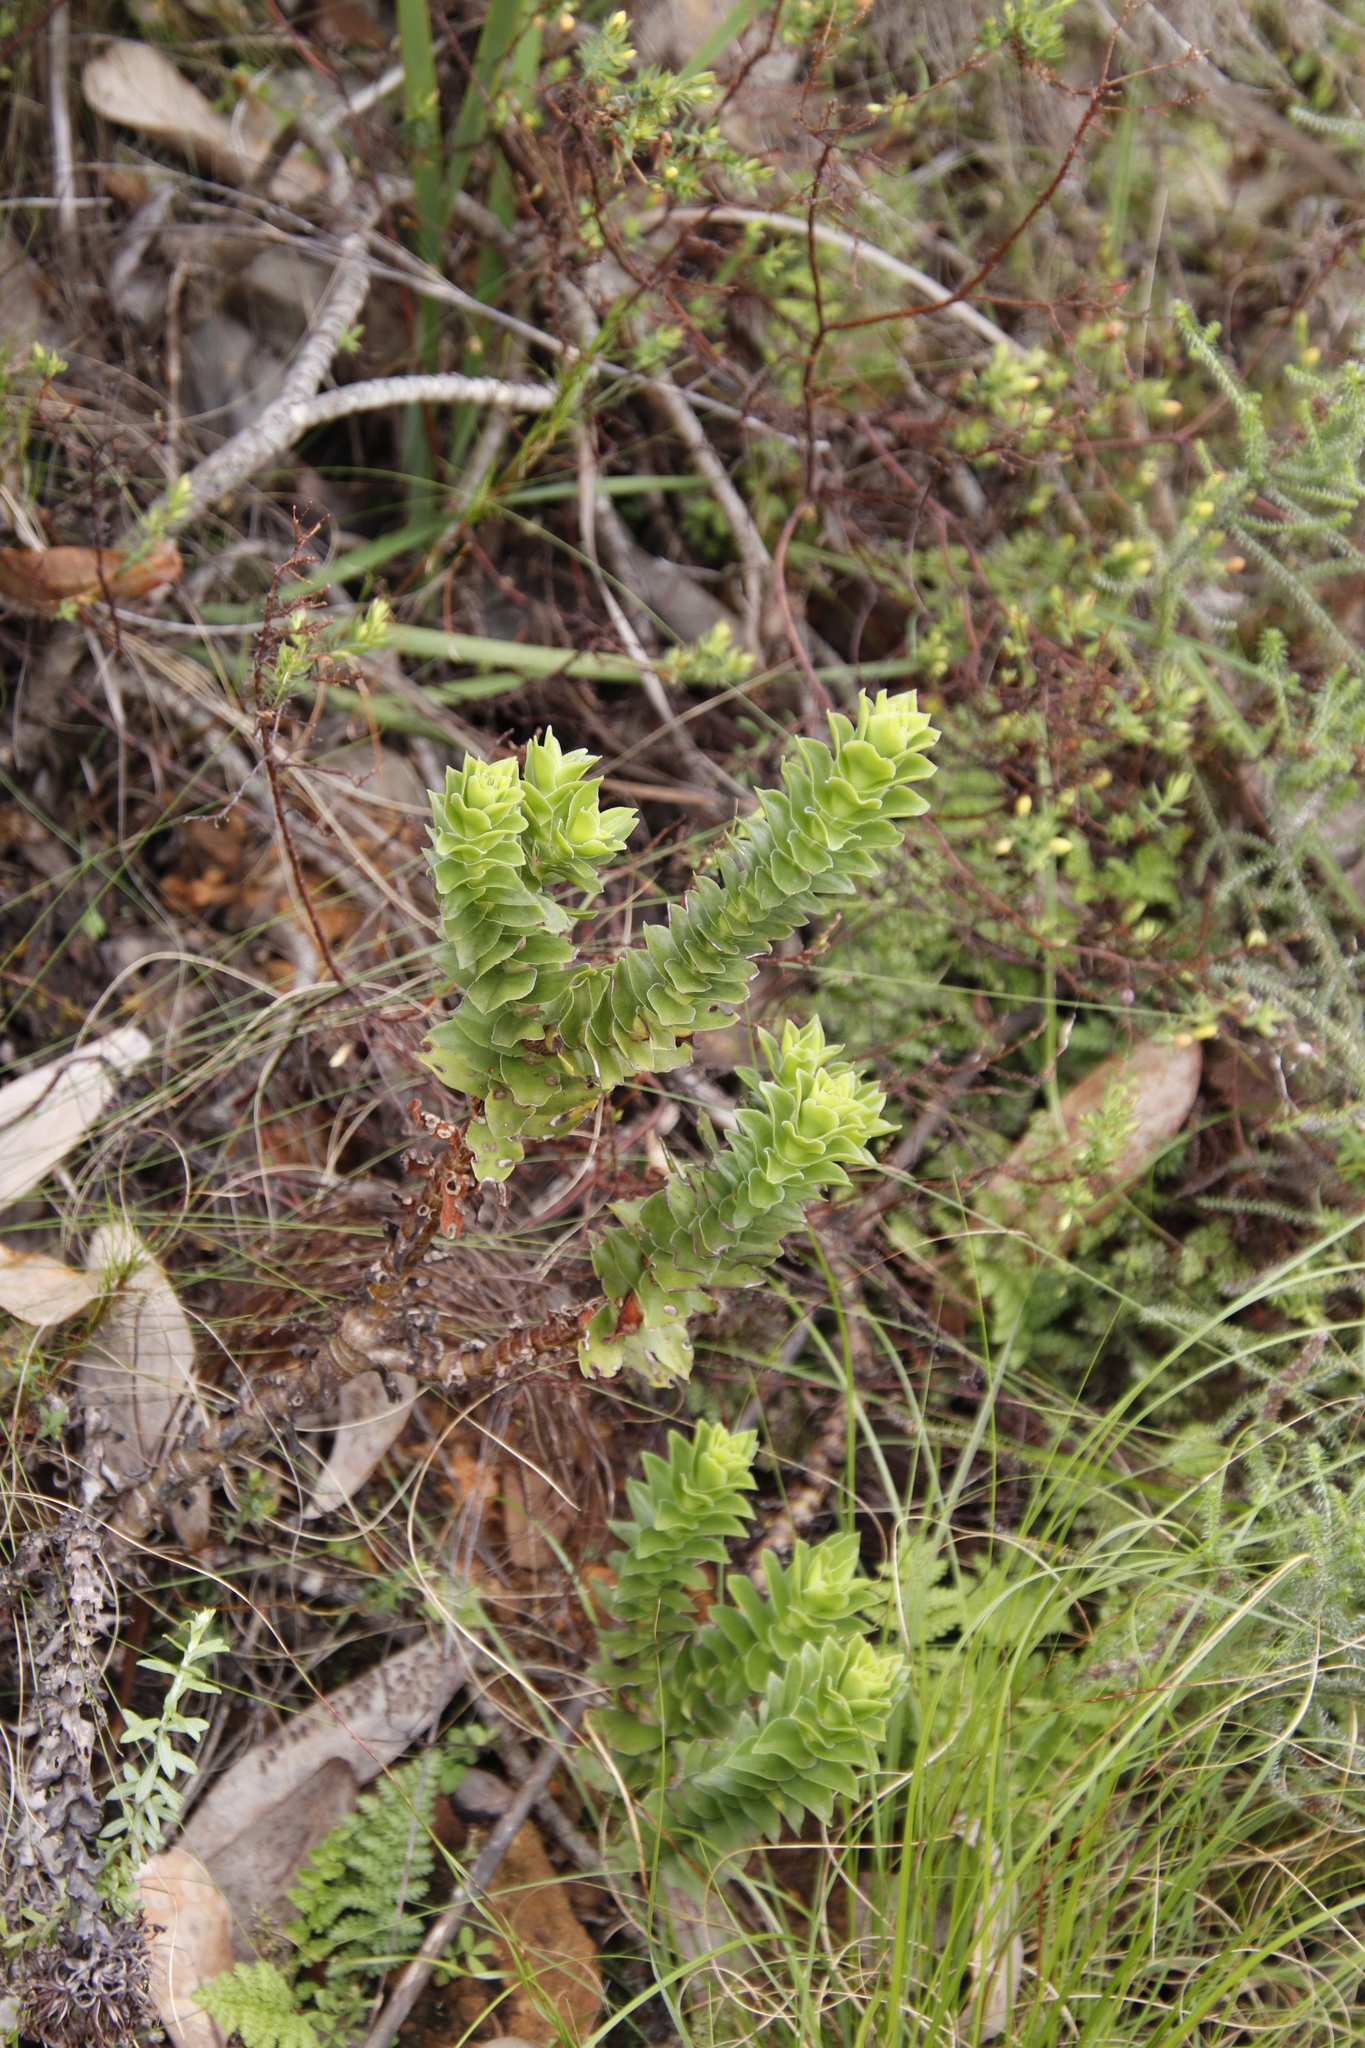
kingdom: Plantae
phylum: Tracheophyta
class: Magnoliopsida
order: Saxifragales
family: Crassulaceae
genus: Crassula
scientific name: Crassula coccinea
